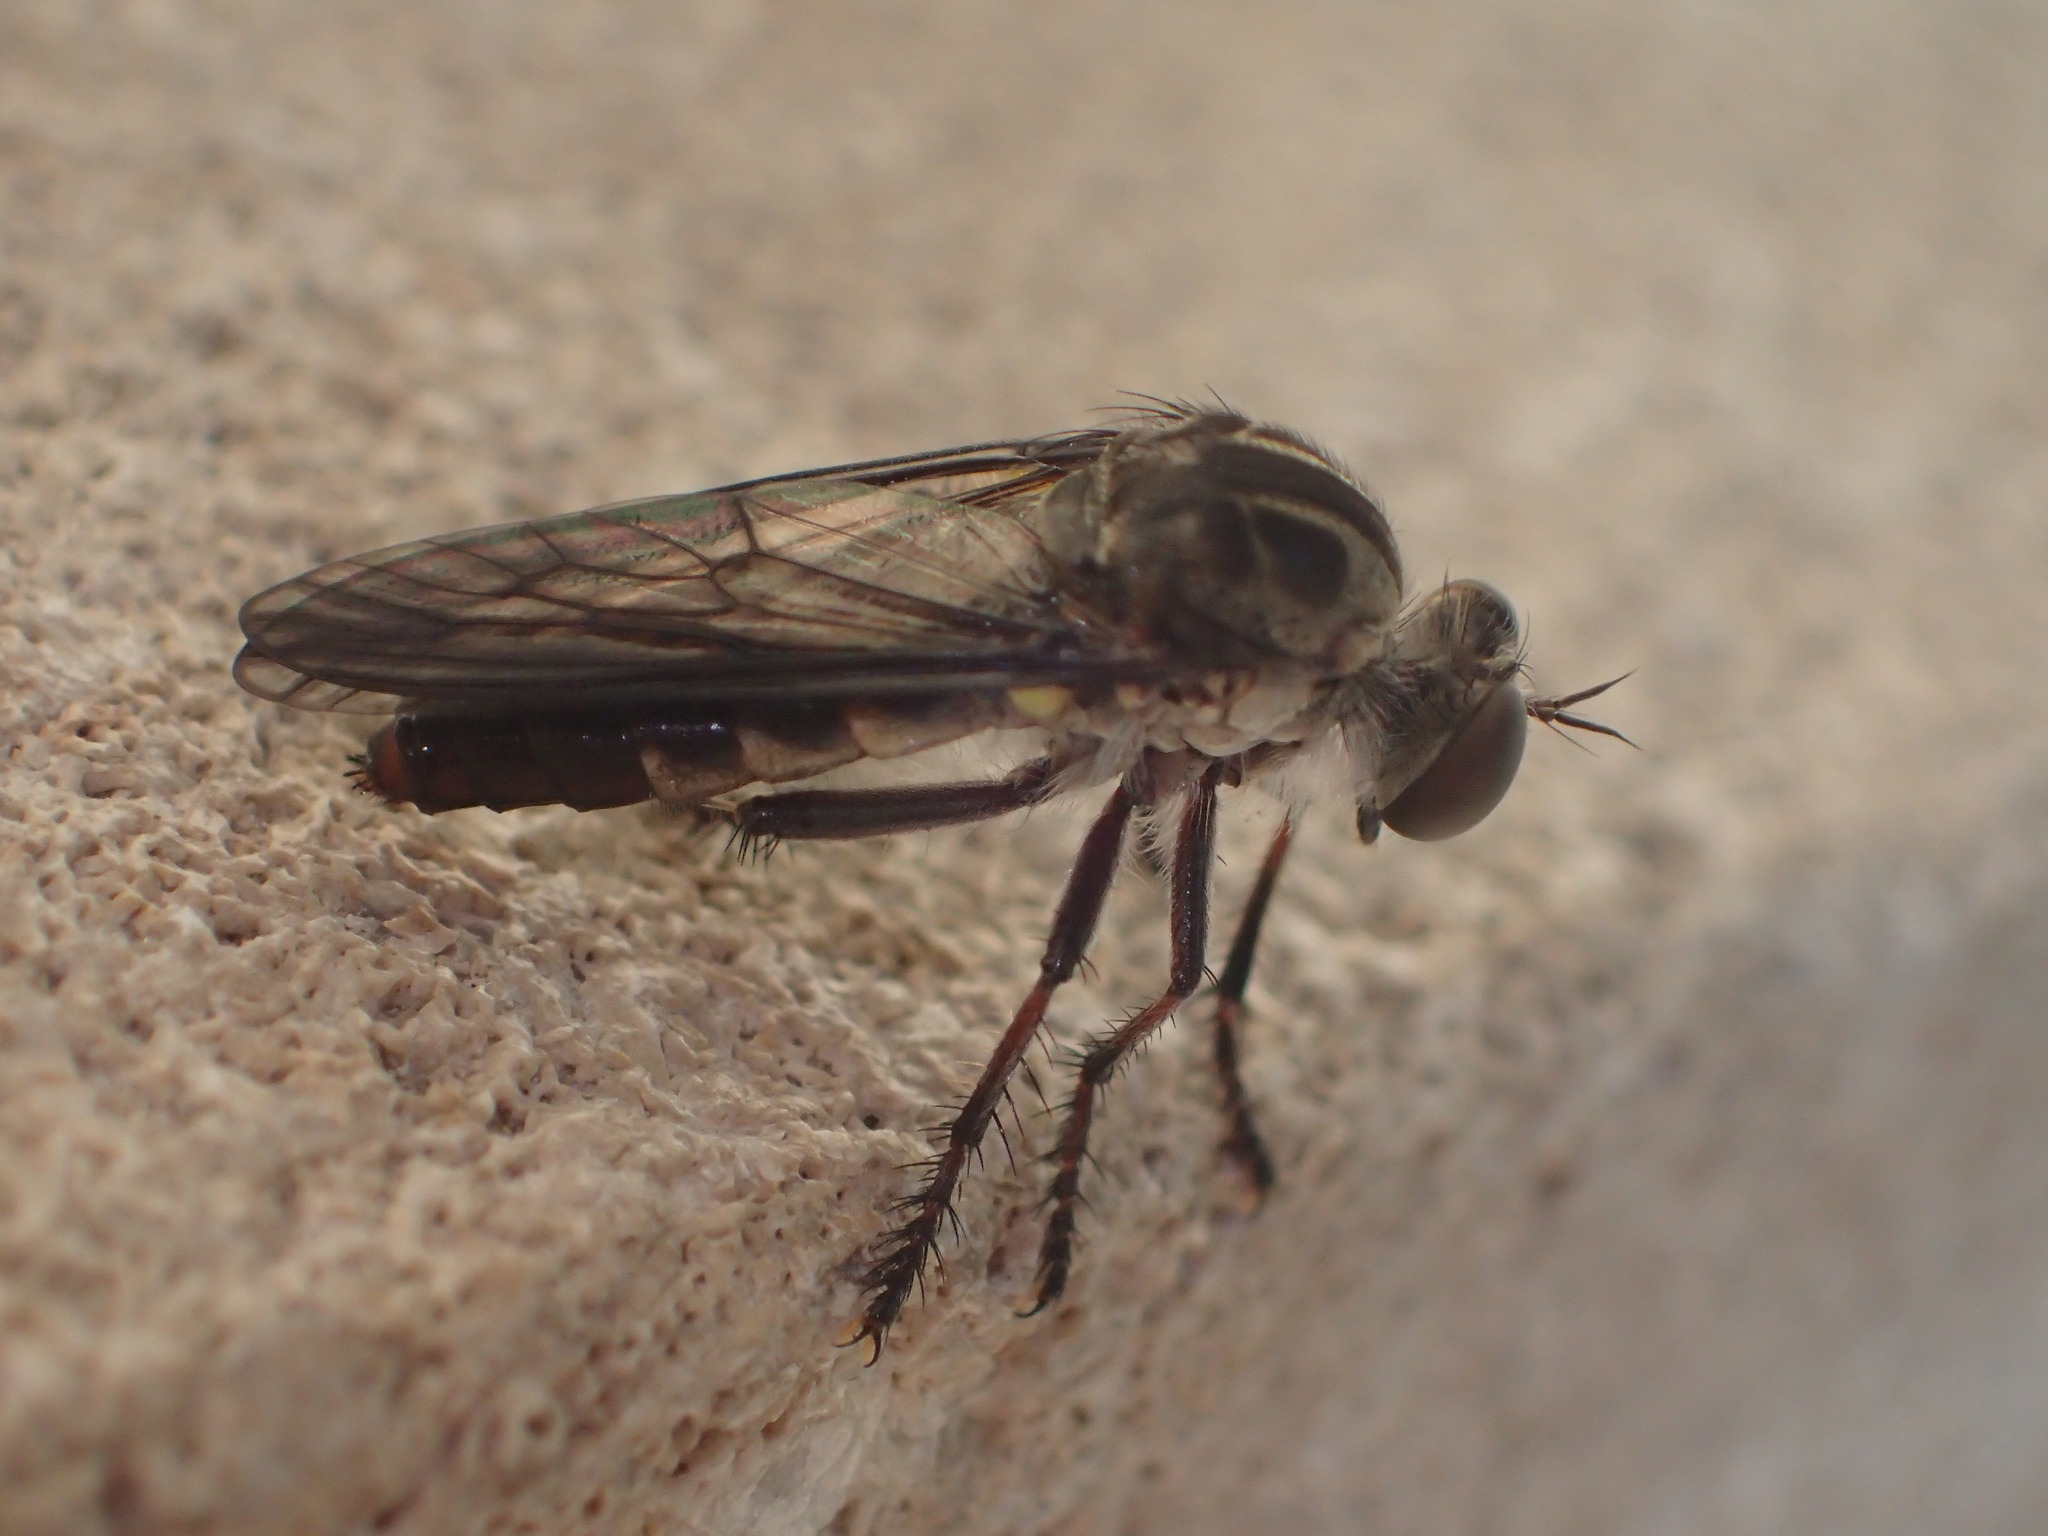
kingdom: Animalia
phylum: Arthropoda
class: Insecta
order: Diptera
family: Asilidae
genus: Heteropogon
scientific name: Heteropogon macerinus
